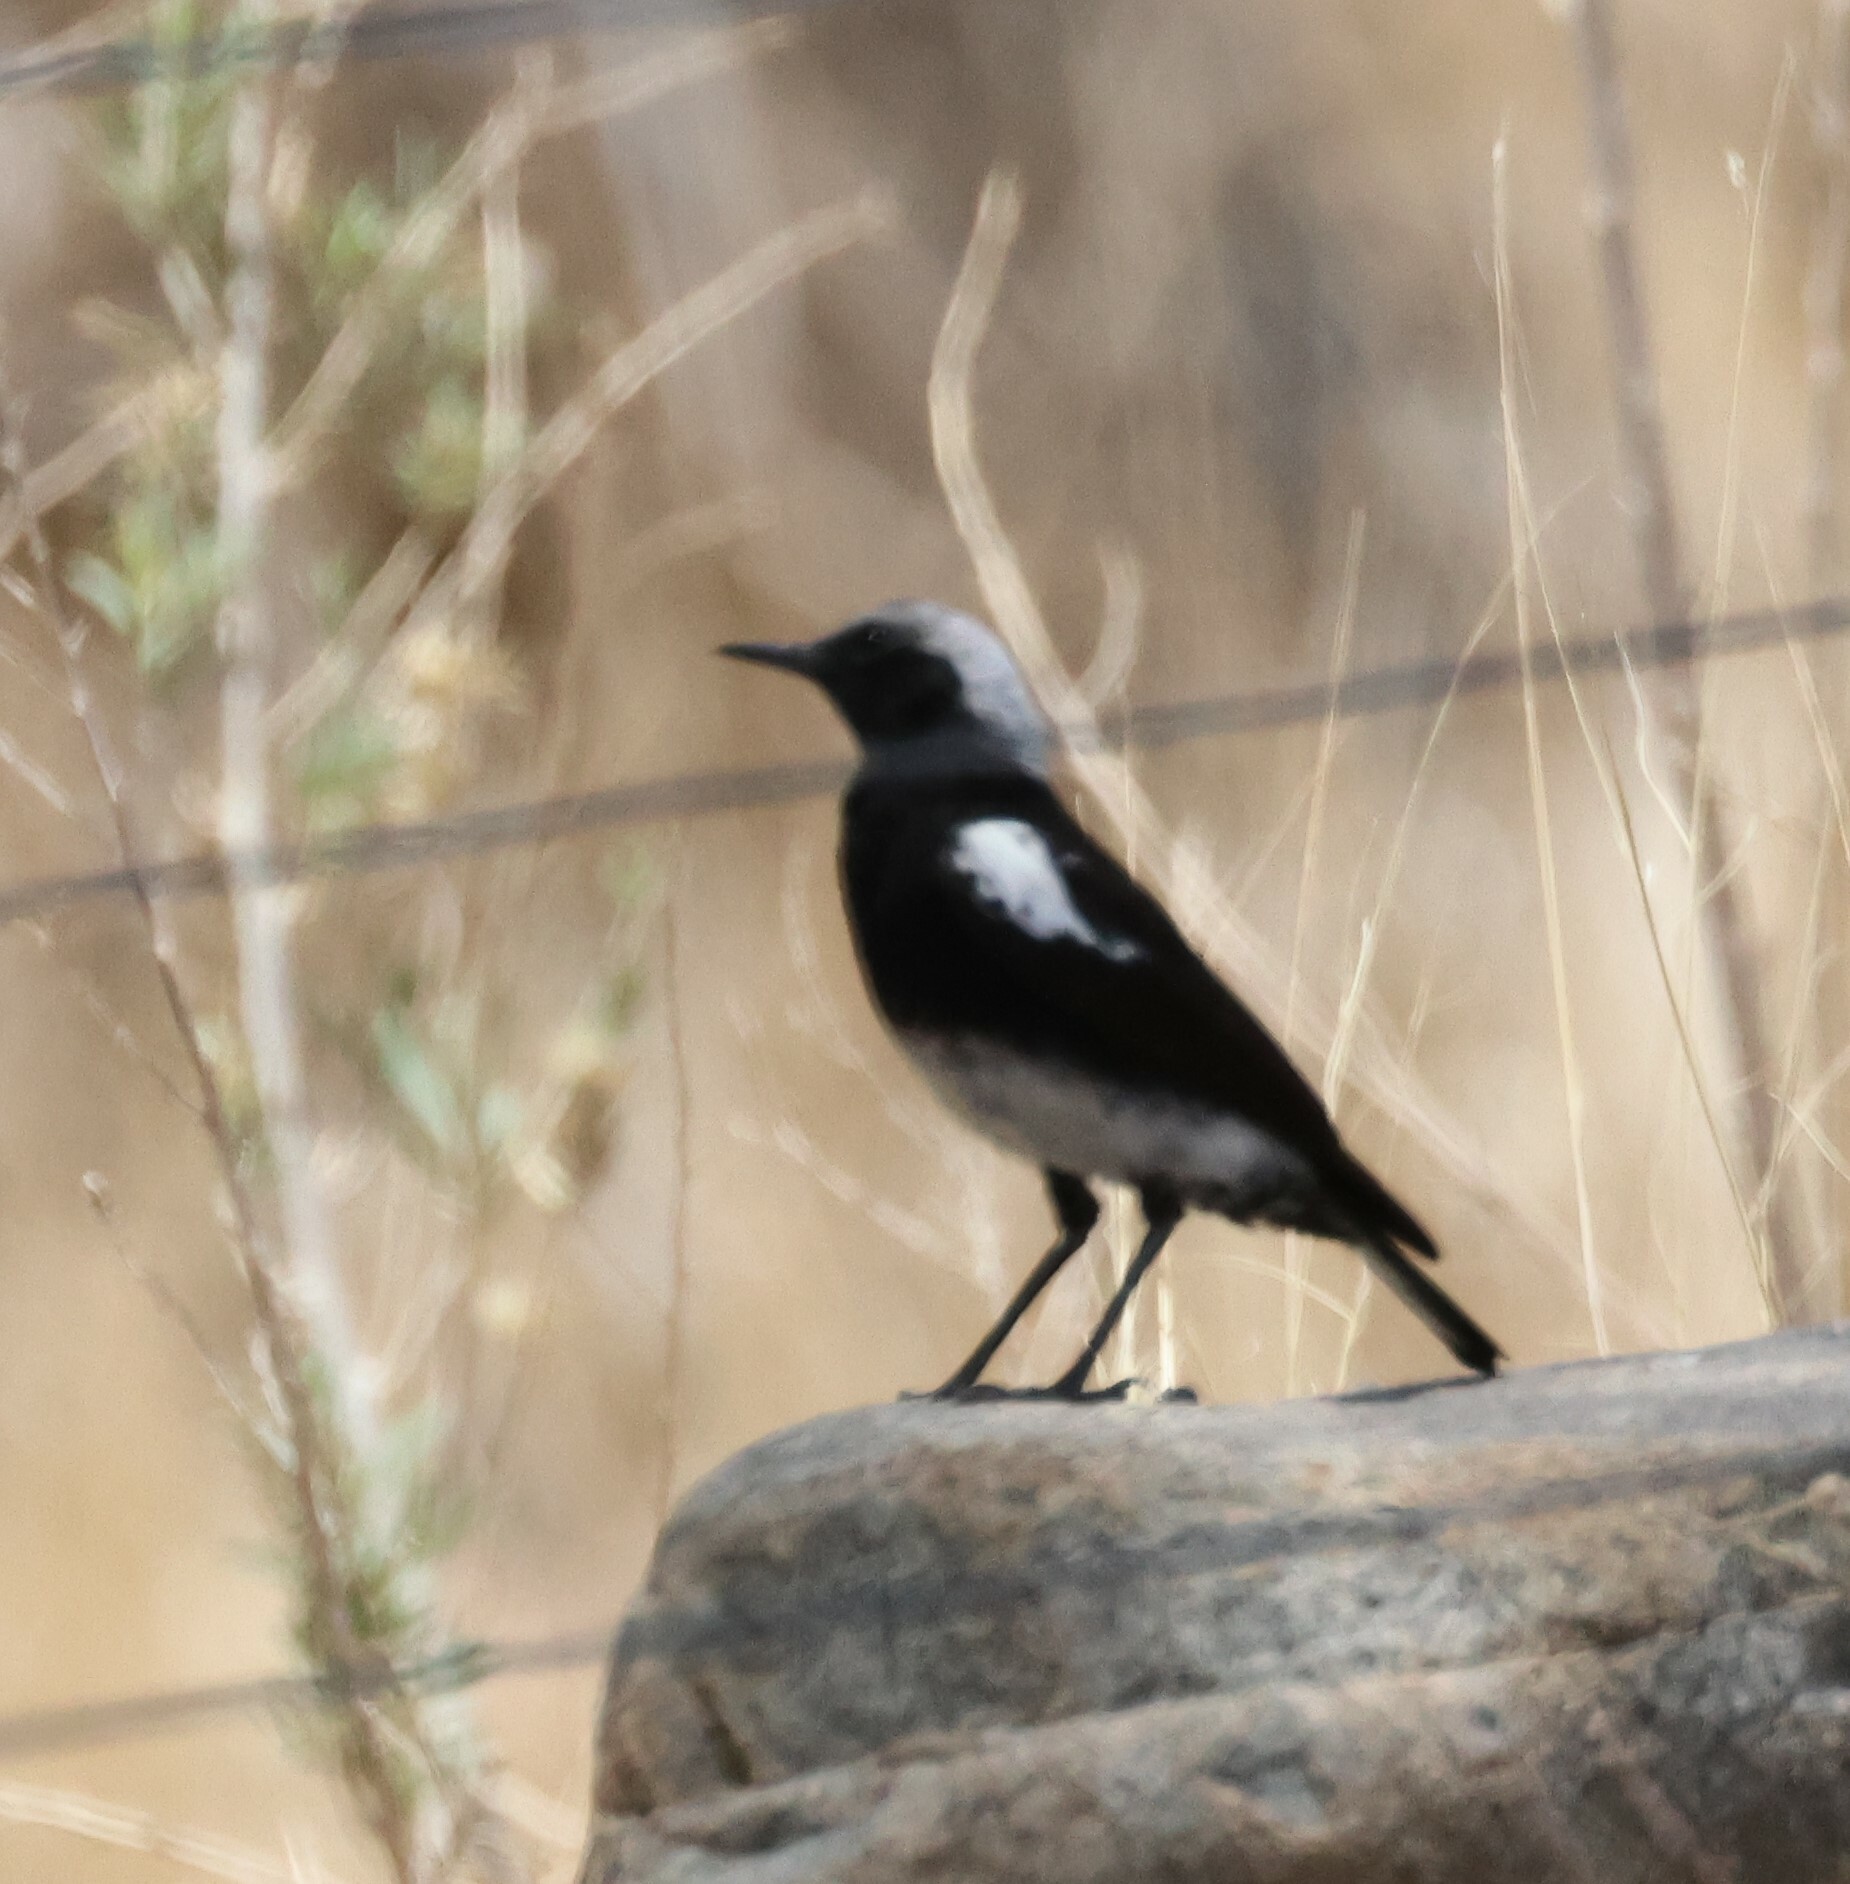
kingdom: Animalia
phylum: Chordata
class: Aves
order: Passeriformes
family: Muscicapidae
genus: Oenanthe
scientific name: Oenanthe monticola
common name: Mountain wheatear
